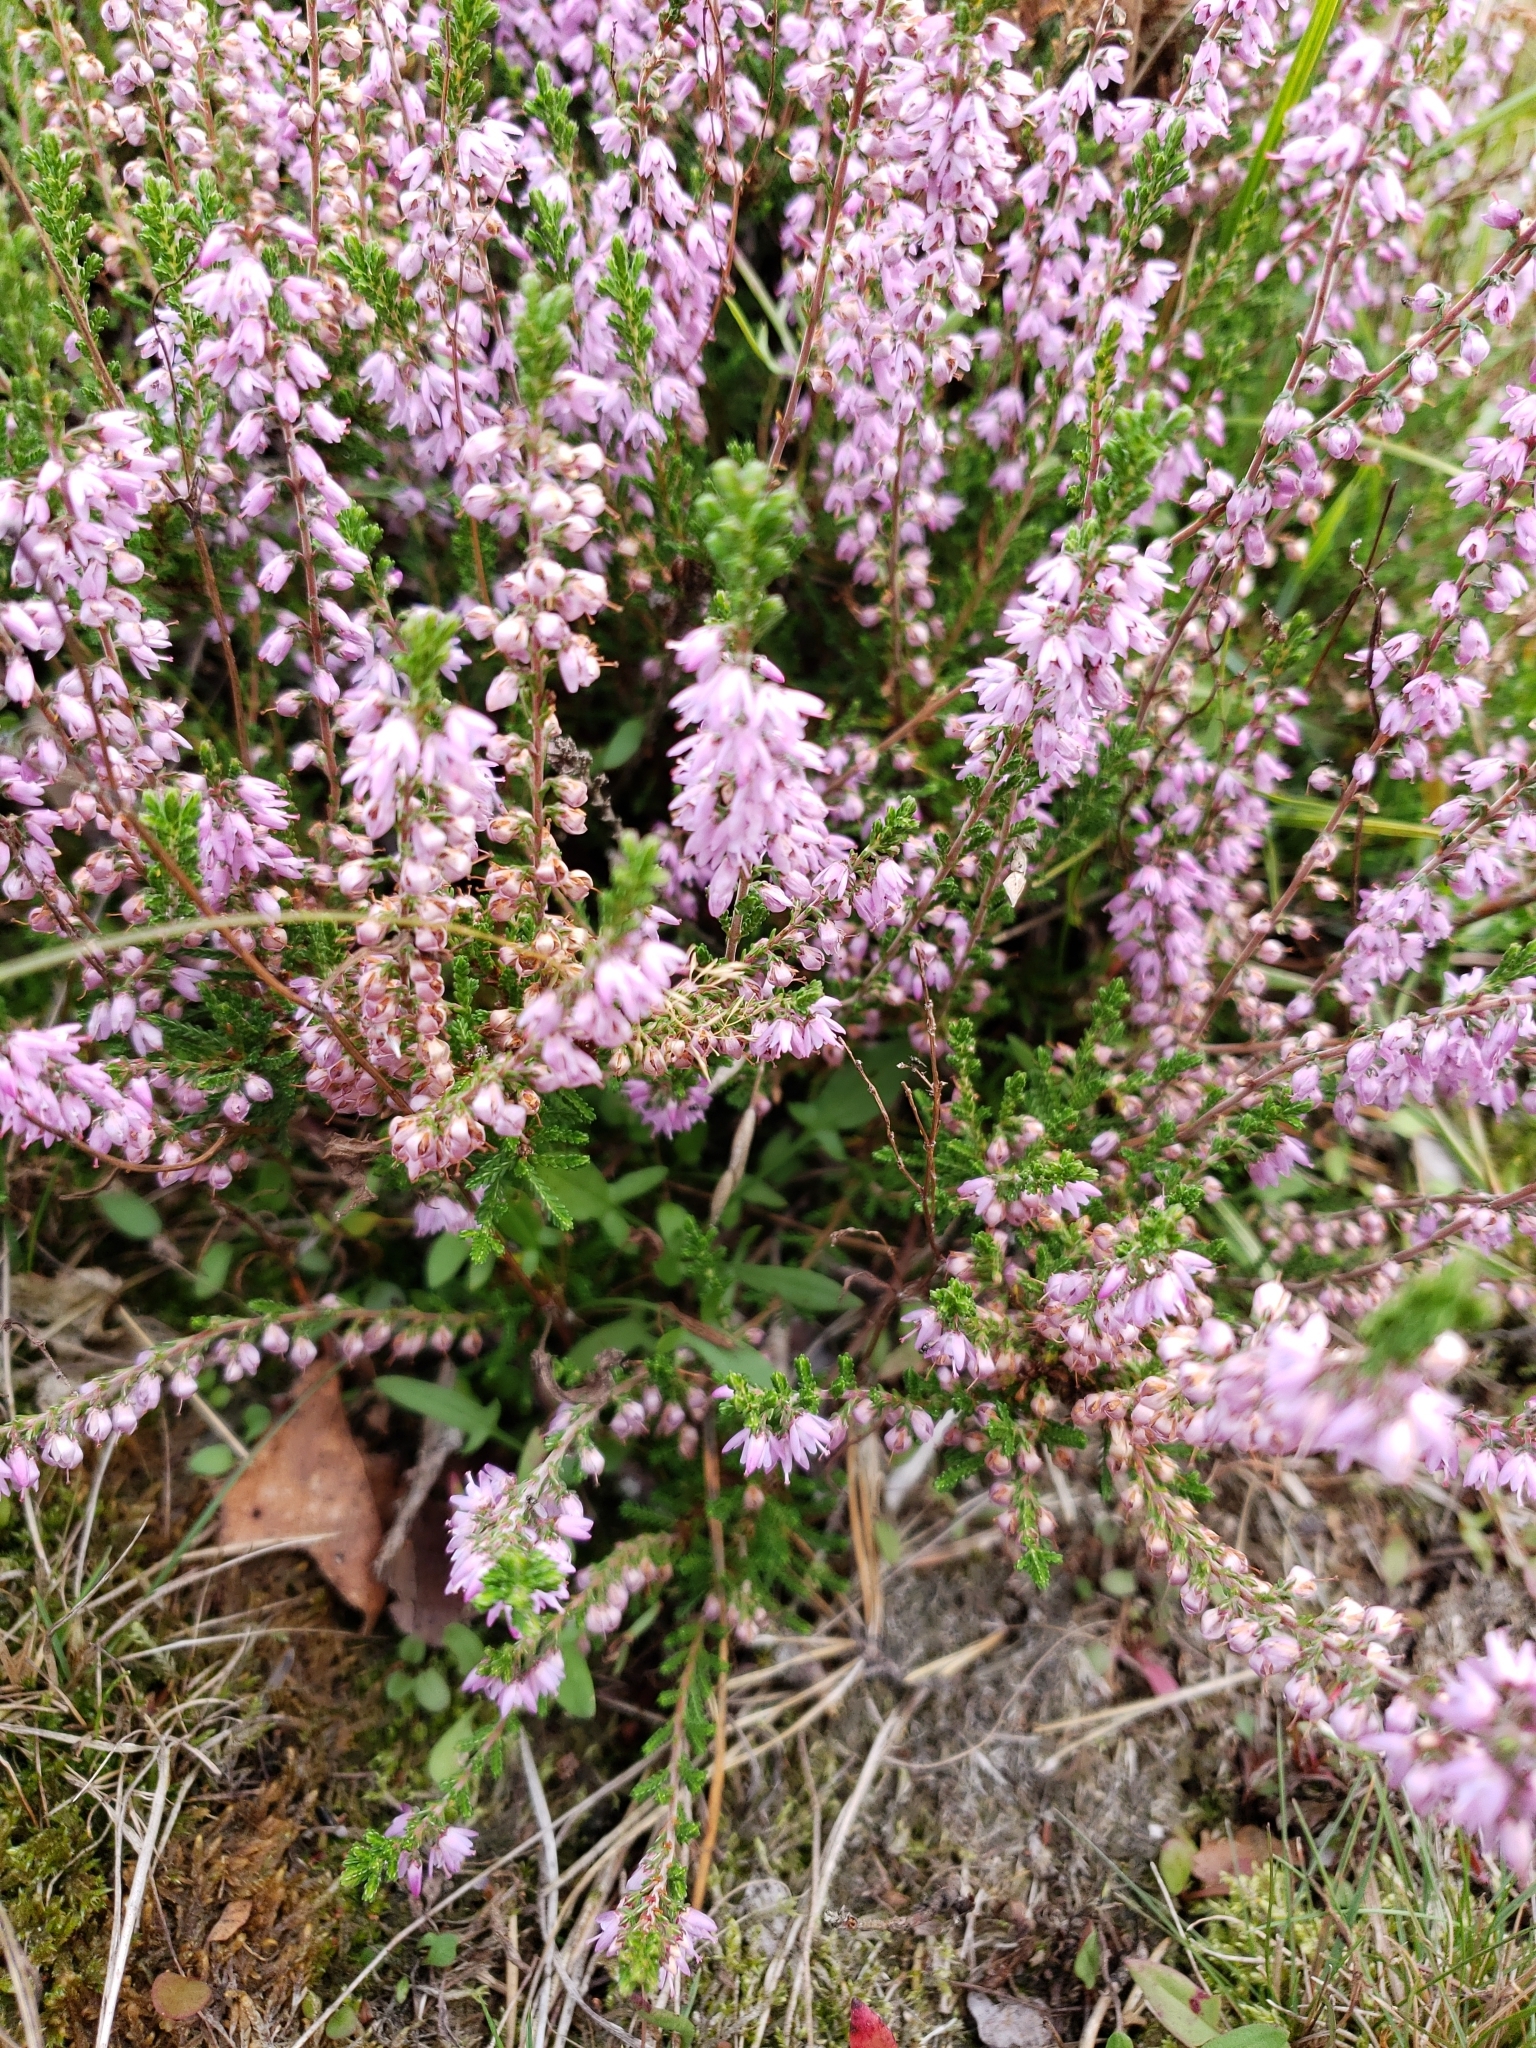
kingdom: Plantae
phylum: Tracheophyta
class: Magnoliopsida
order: Ericales
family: Ericaceae
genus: Calluna
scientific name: Calluna vulgaris
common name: Heather
